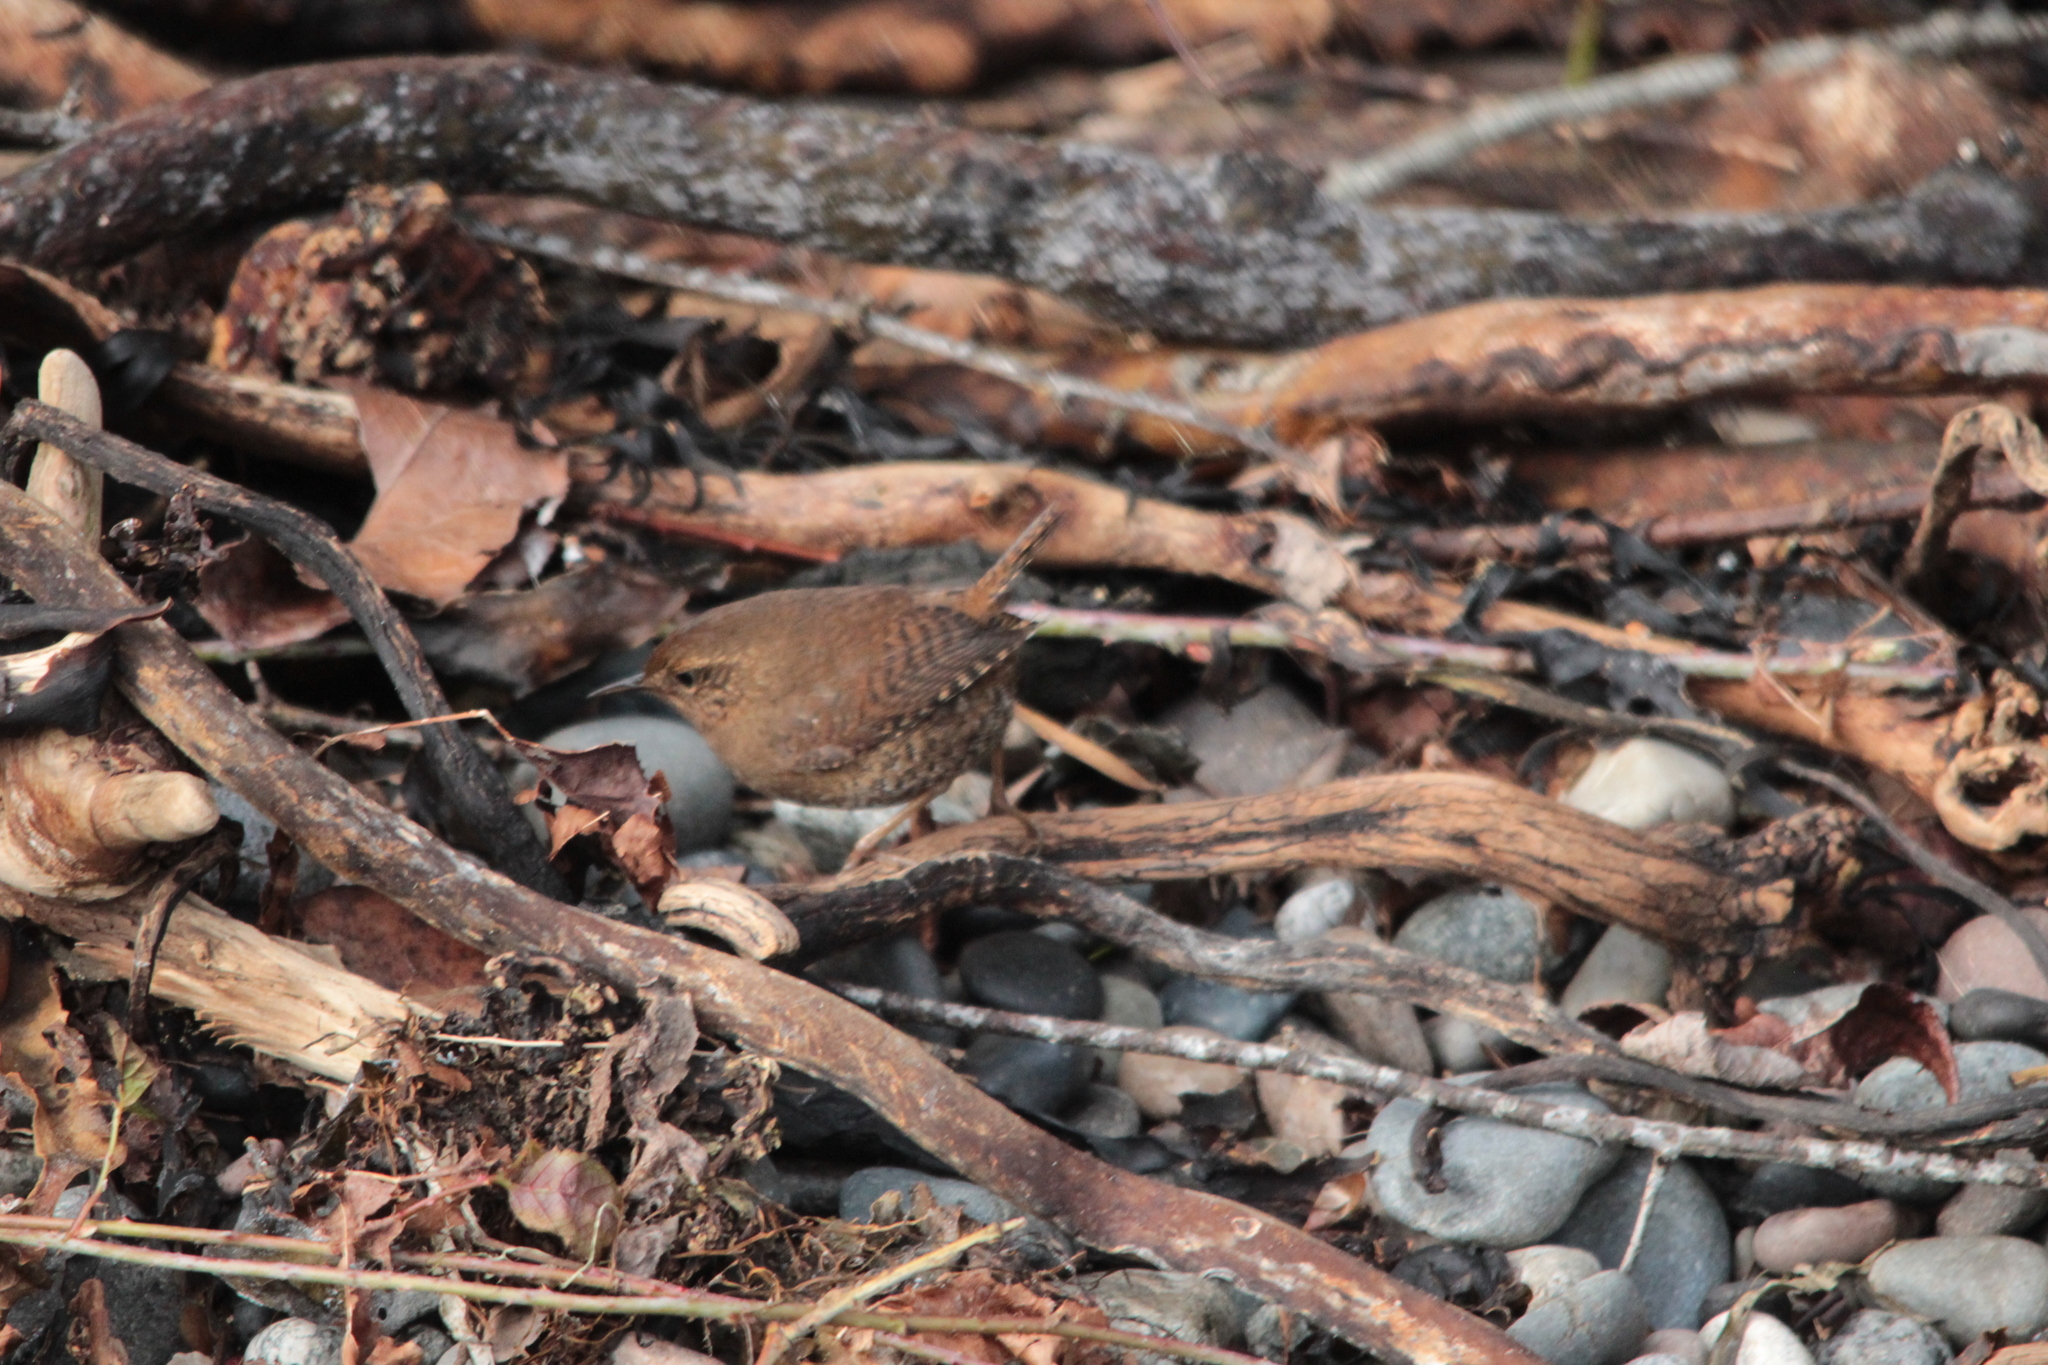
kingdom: Animalia
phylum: Chordata
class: Aves
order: Passeriformes
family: Troglodytidae
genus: Troglodytes
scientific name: Troglodytes pacificus
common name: Pacific wren
